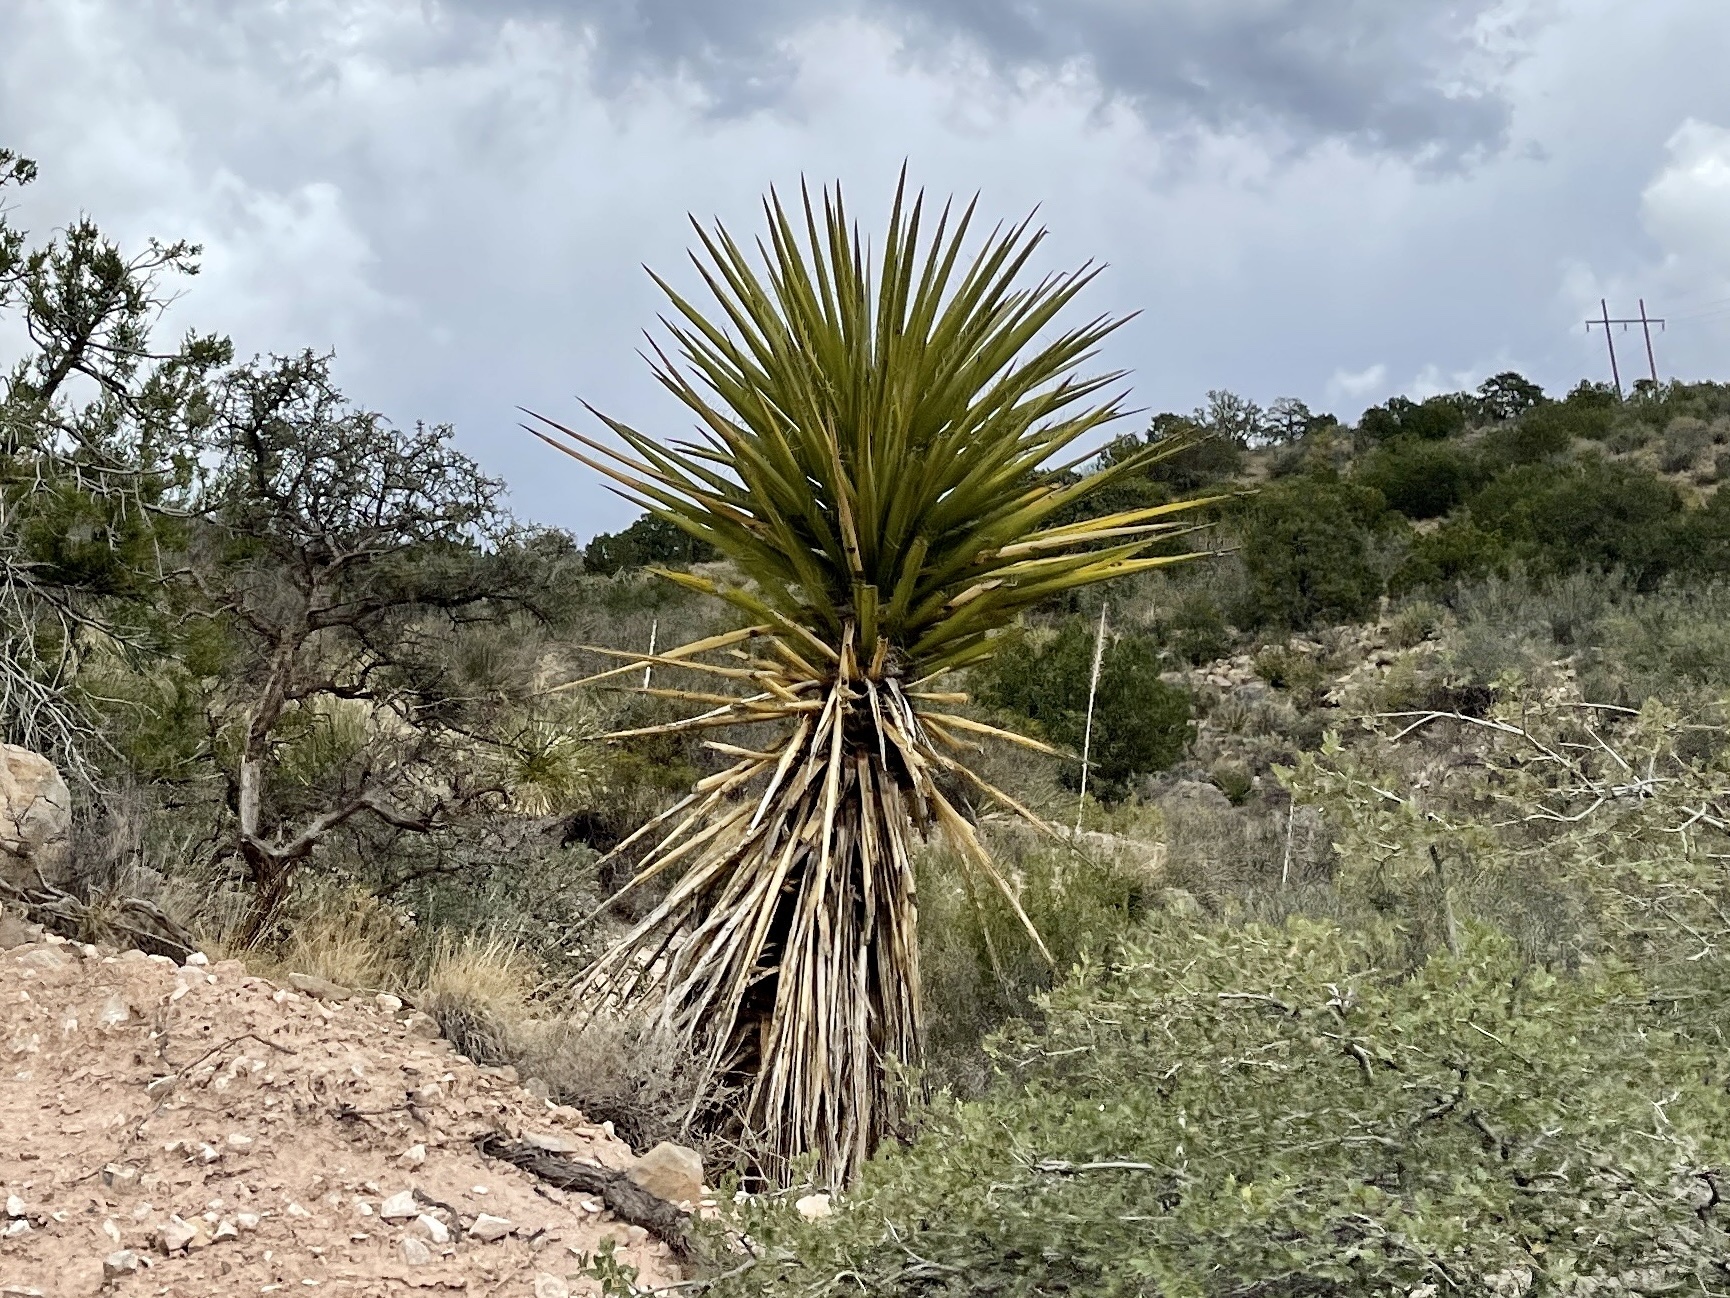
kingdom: Plantae
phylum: Tracheophyta
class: Liliopsida
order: Asparagales
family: Asparagaceae
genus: Yucca
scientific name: Yucca treculiana
